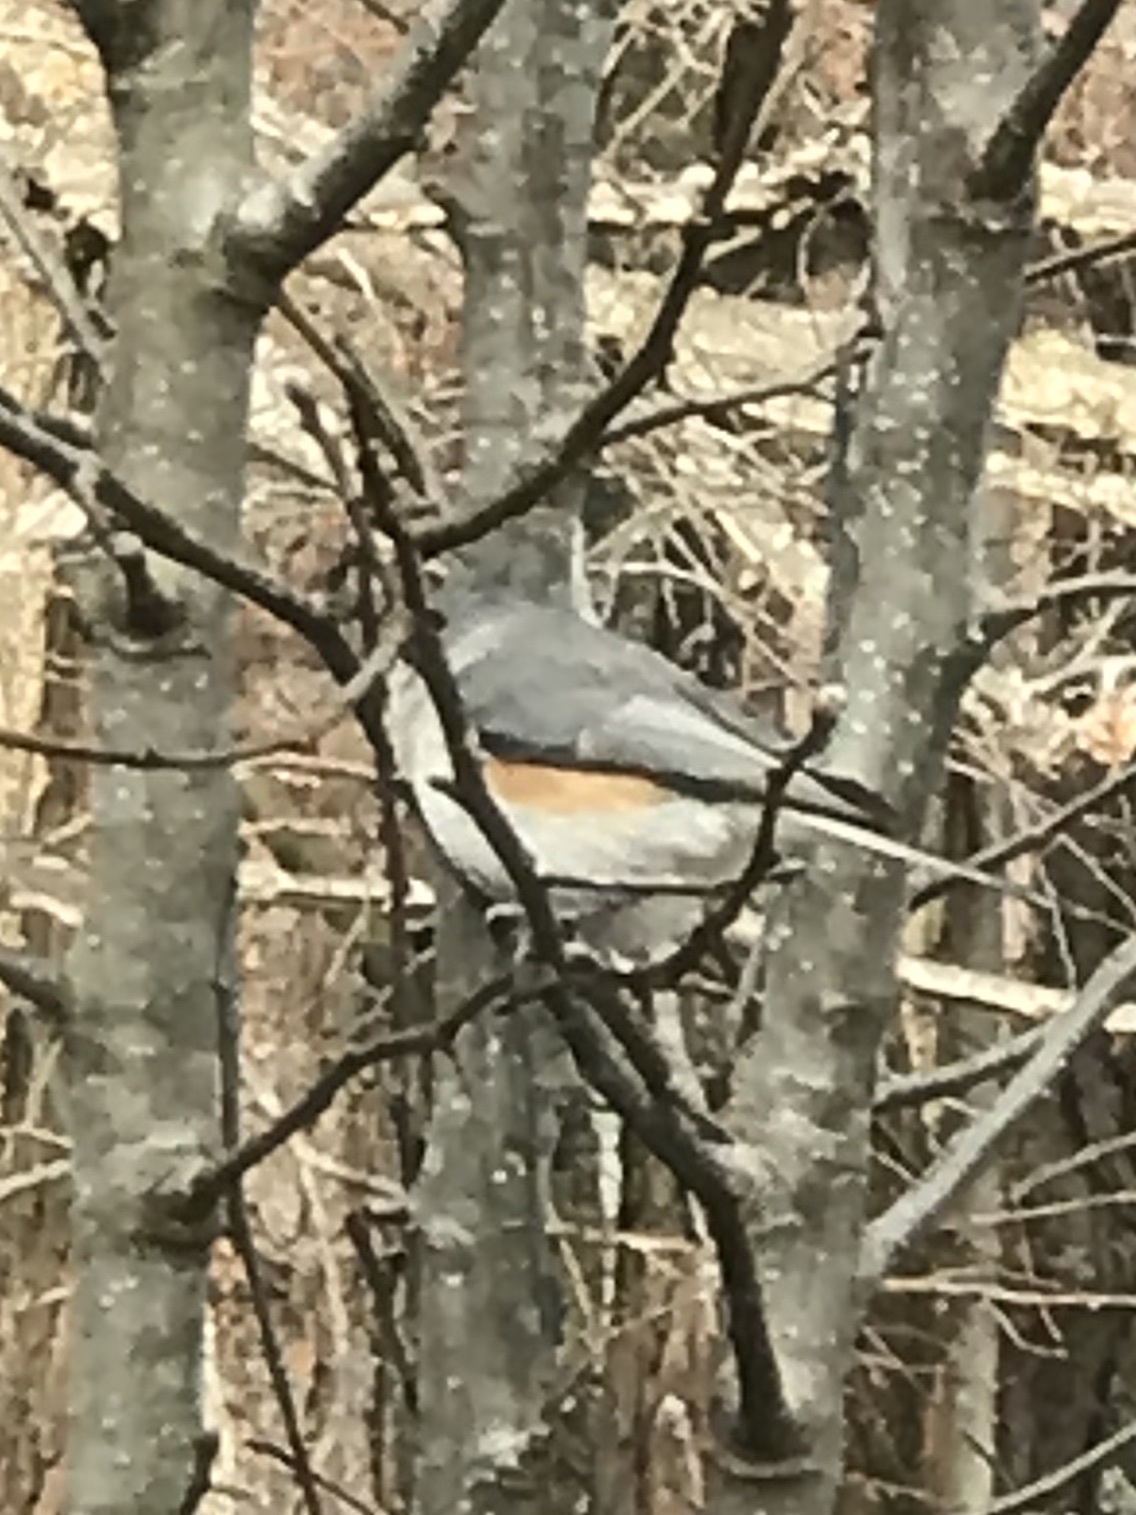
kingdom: Animalia
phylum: Chordata
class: Aves
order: Passeriformes
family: Paridae
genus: Baeolophus
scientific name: Baeolophus bicolor
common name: Tufted titmouse
